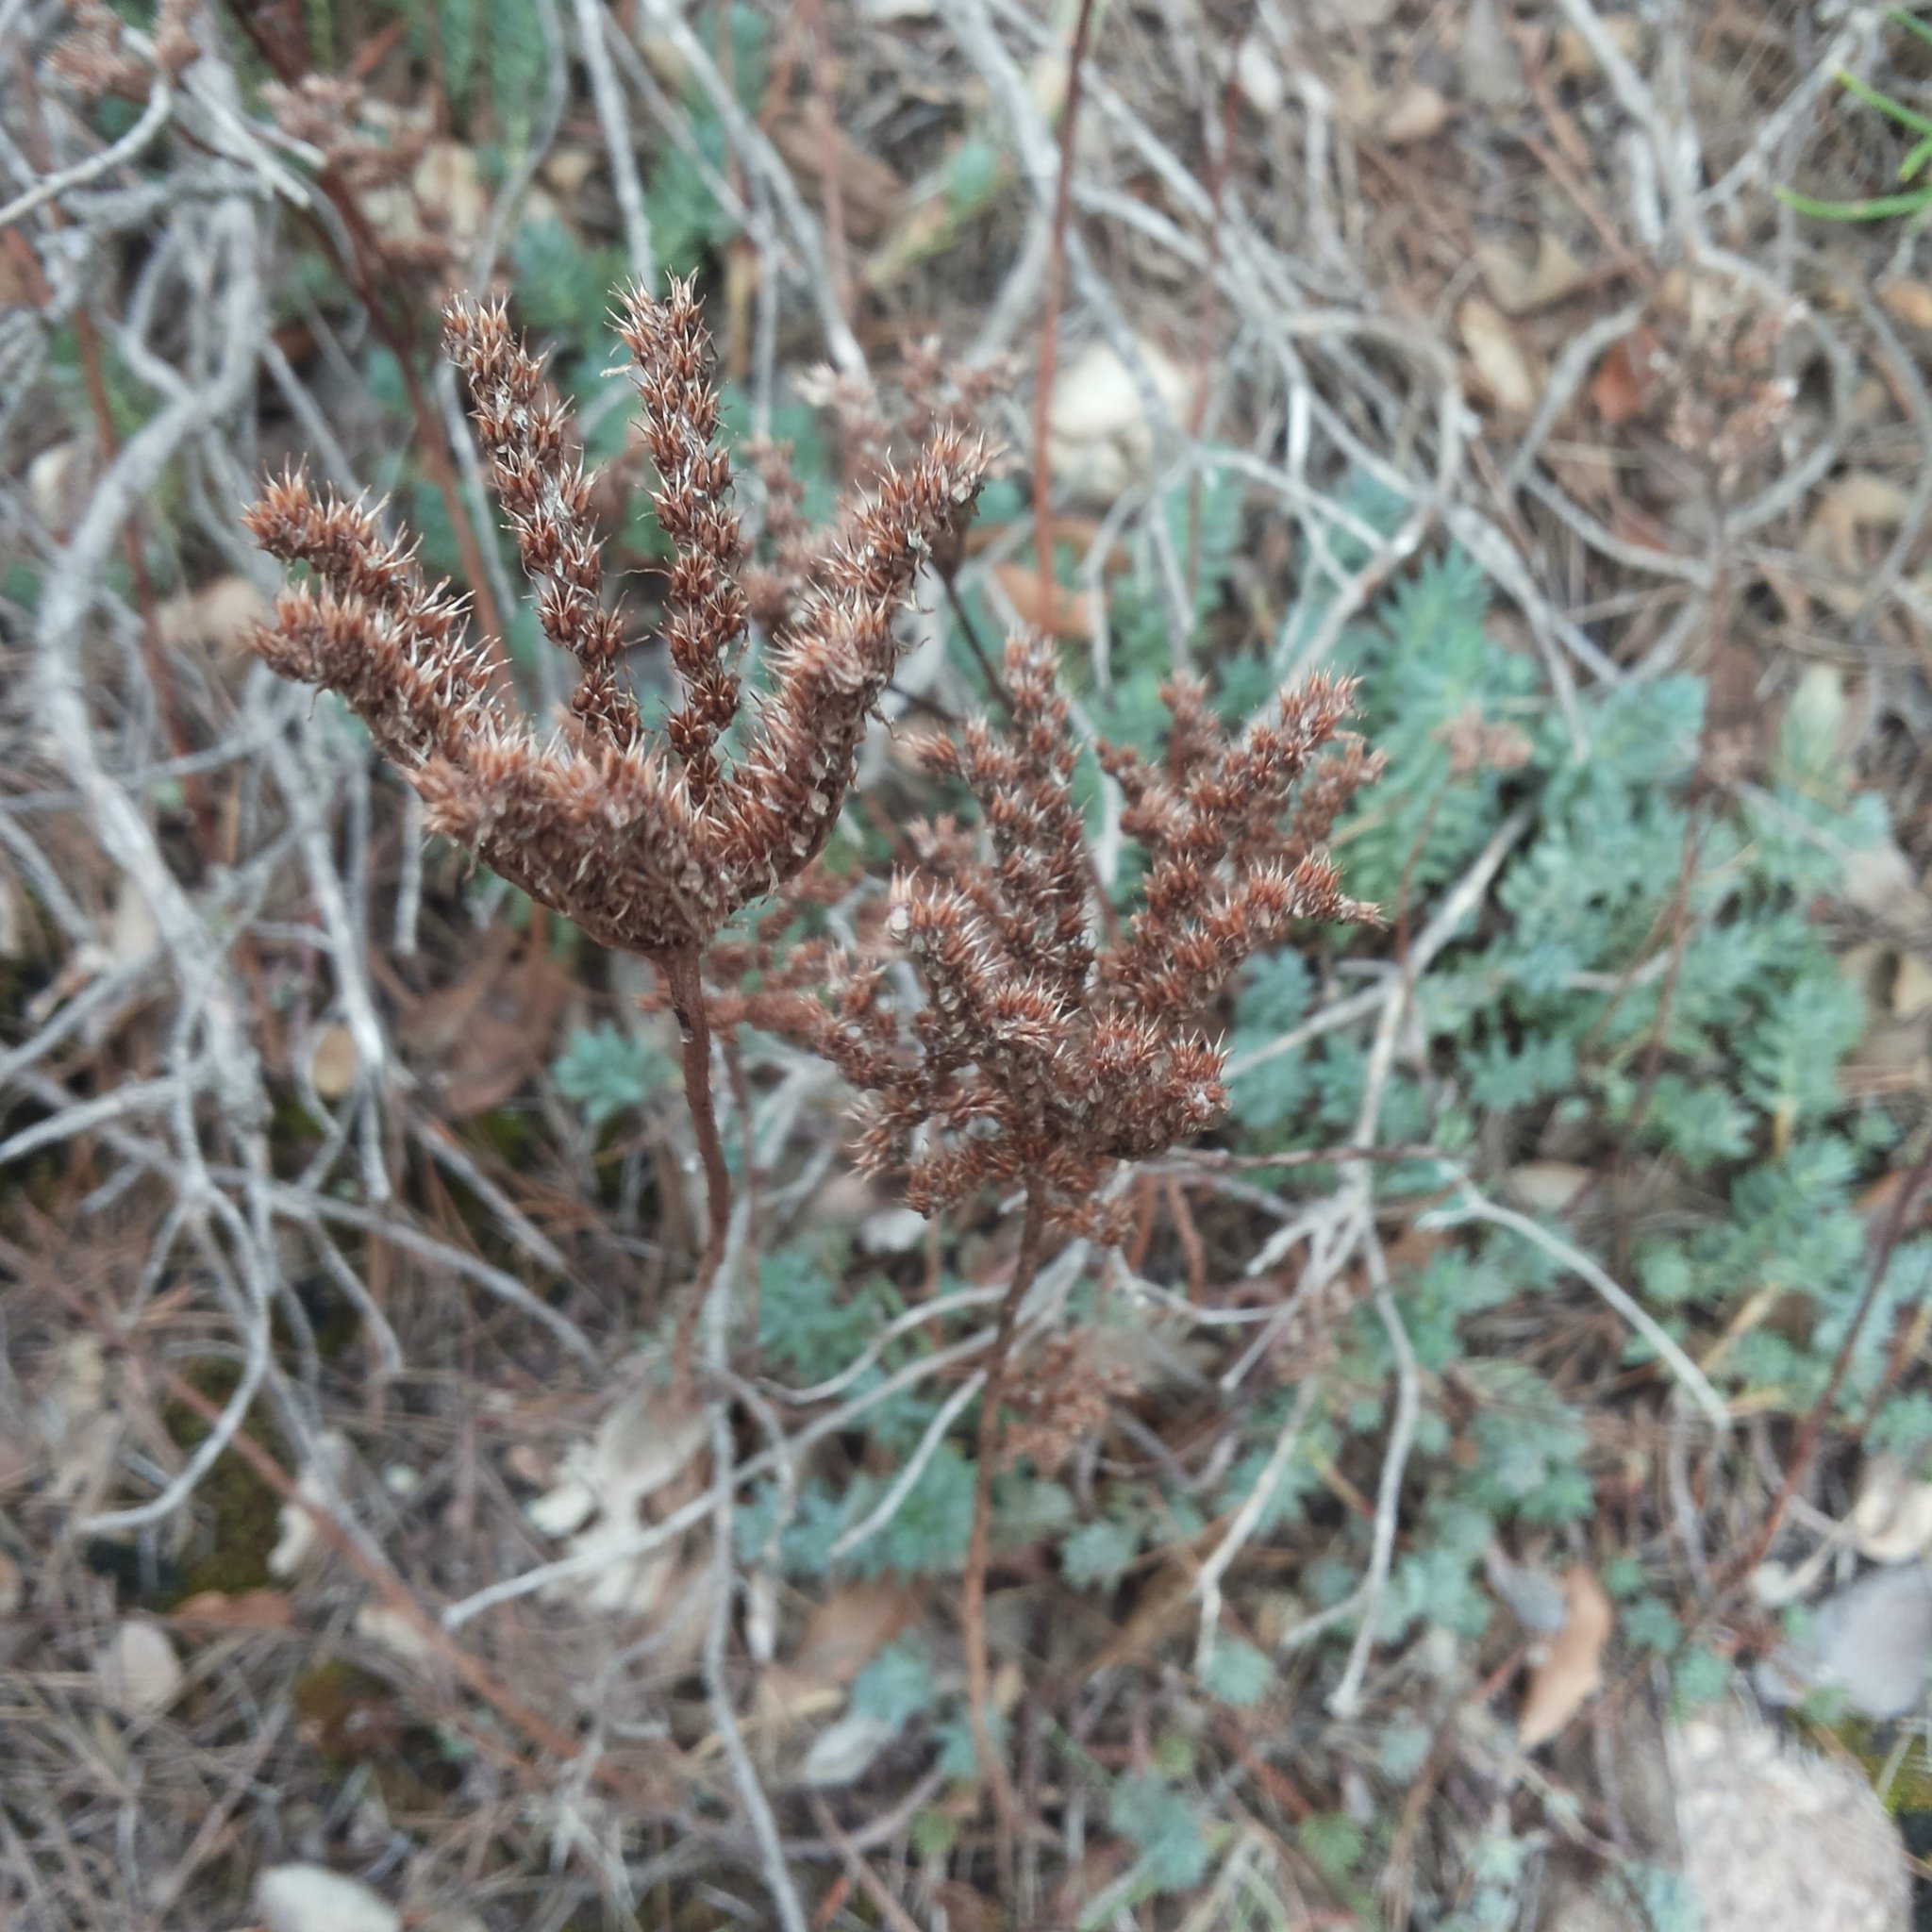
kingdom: Plantae
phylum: Tracheophyta
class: Magnoliopsida
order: Saxifragales
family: Crassulaceae
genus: Petrosedum
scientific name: Petrosedum sediforme
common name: Pale stonecrop
